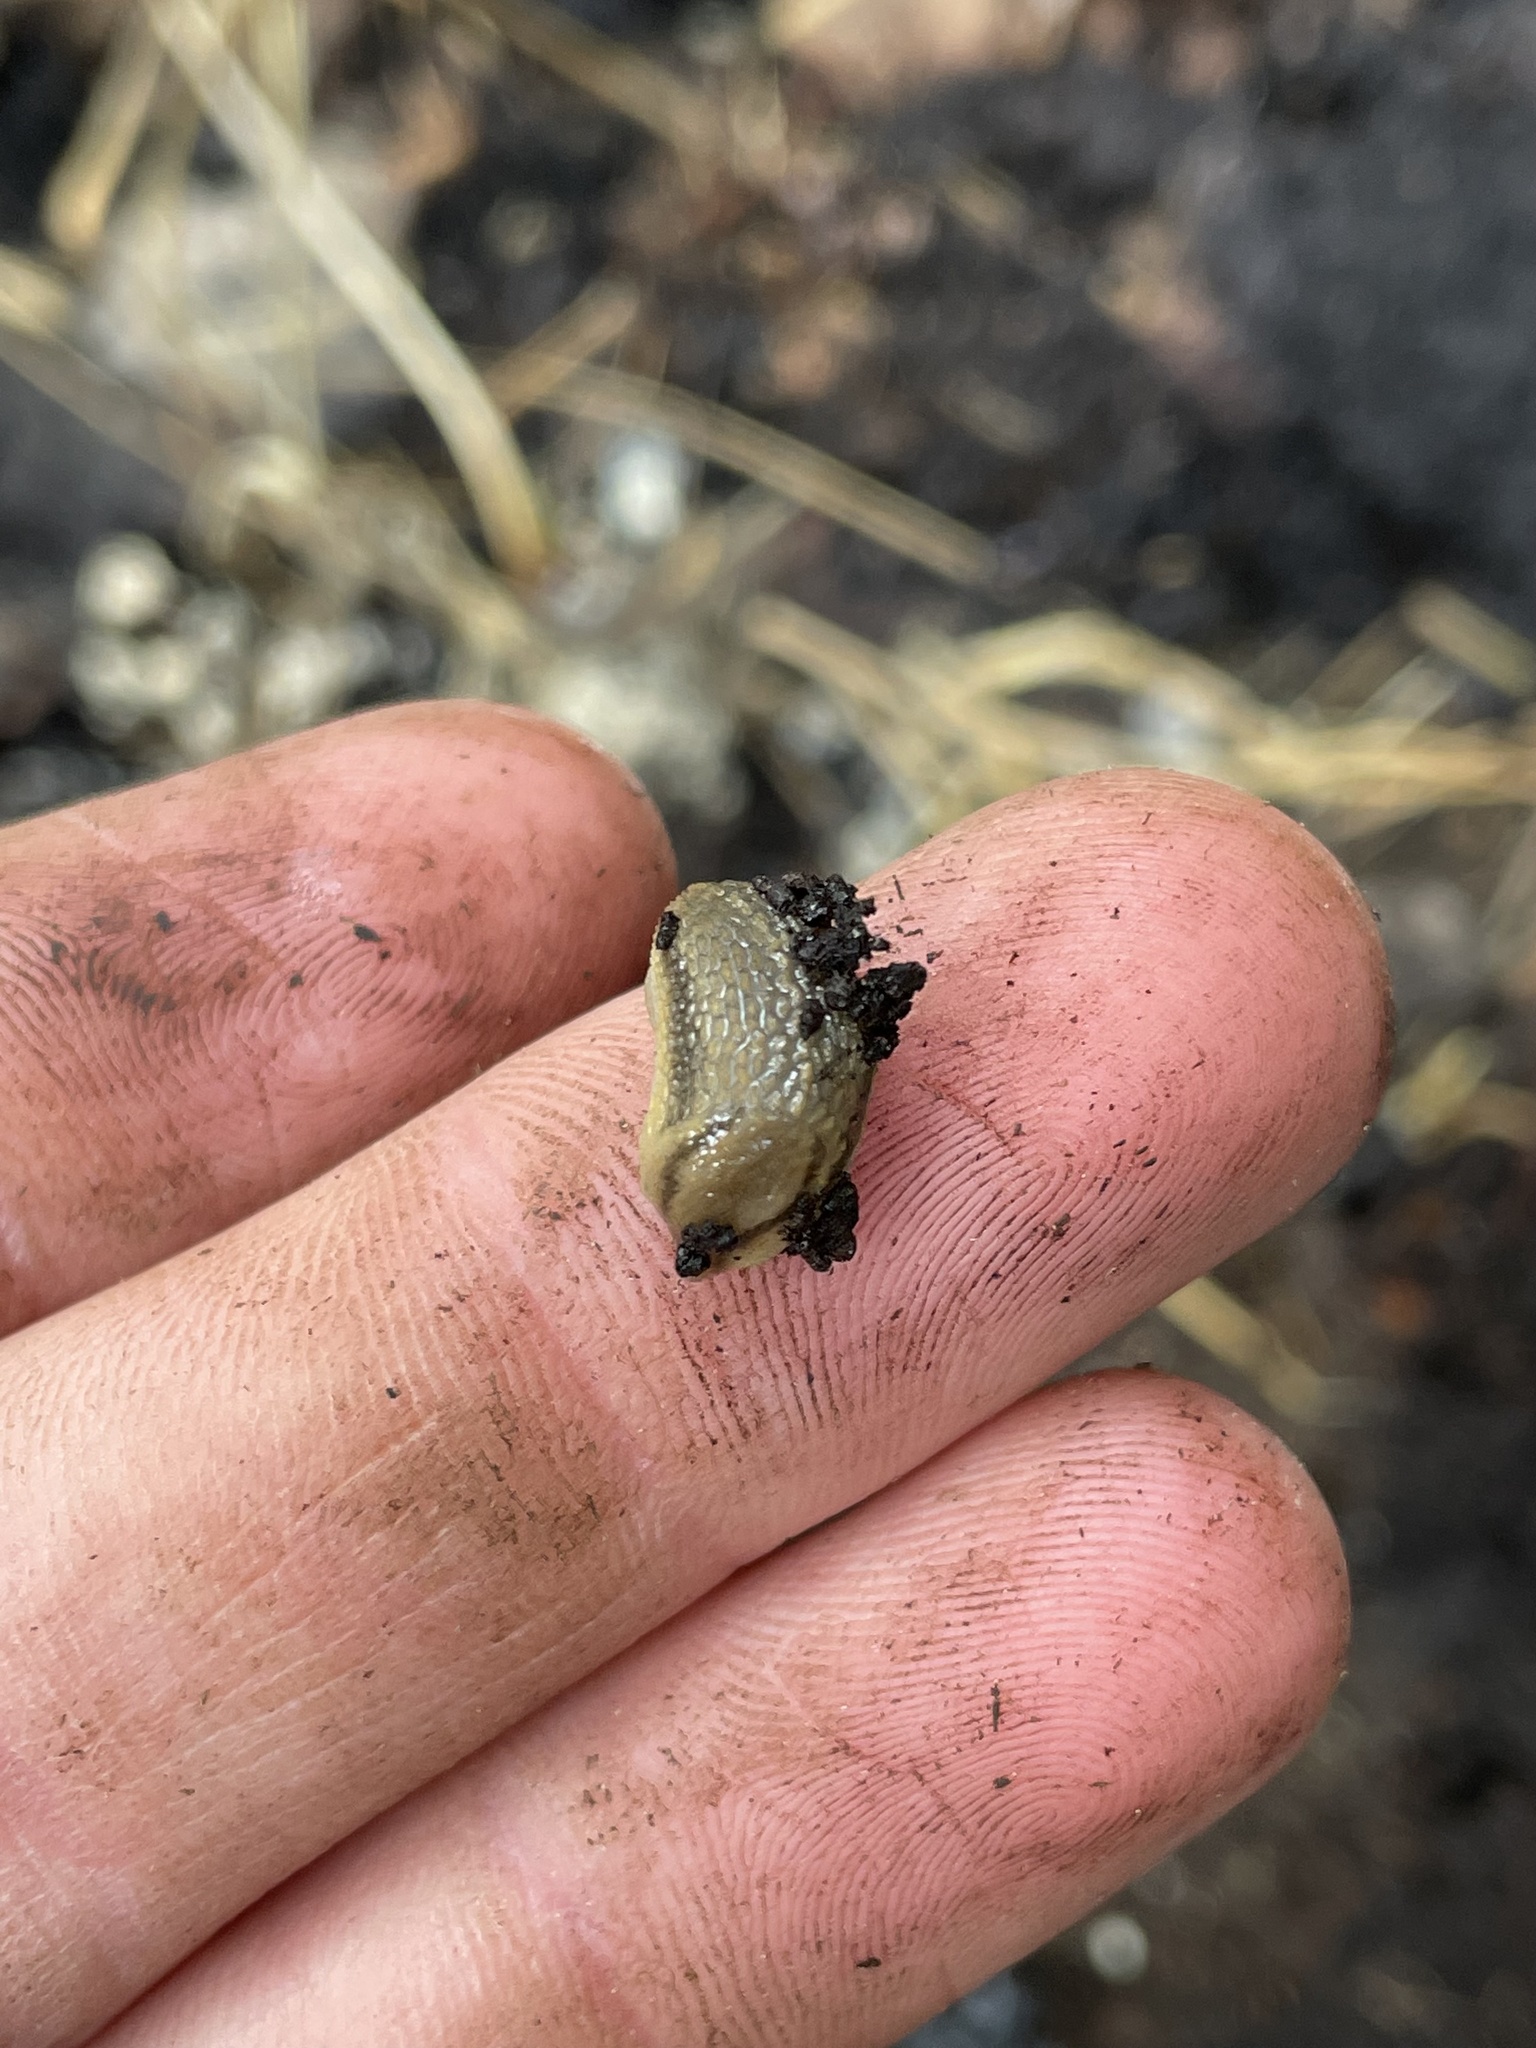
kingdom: Animalia
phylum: Mollusca
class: Gastropoda
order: Stylommatophora
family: Arionidae
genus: Arion
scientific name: Arion fasciatus
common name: Orange-banded arion
